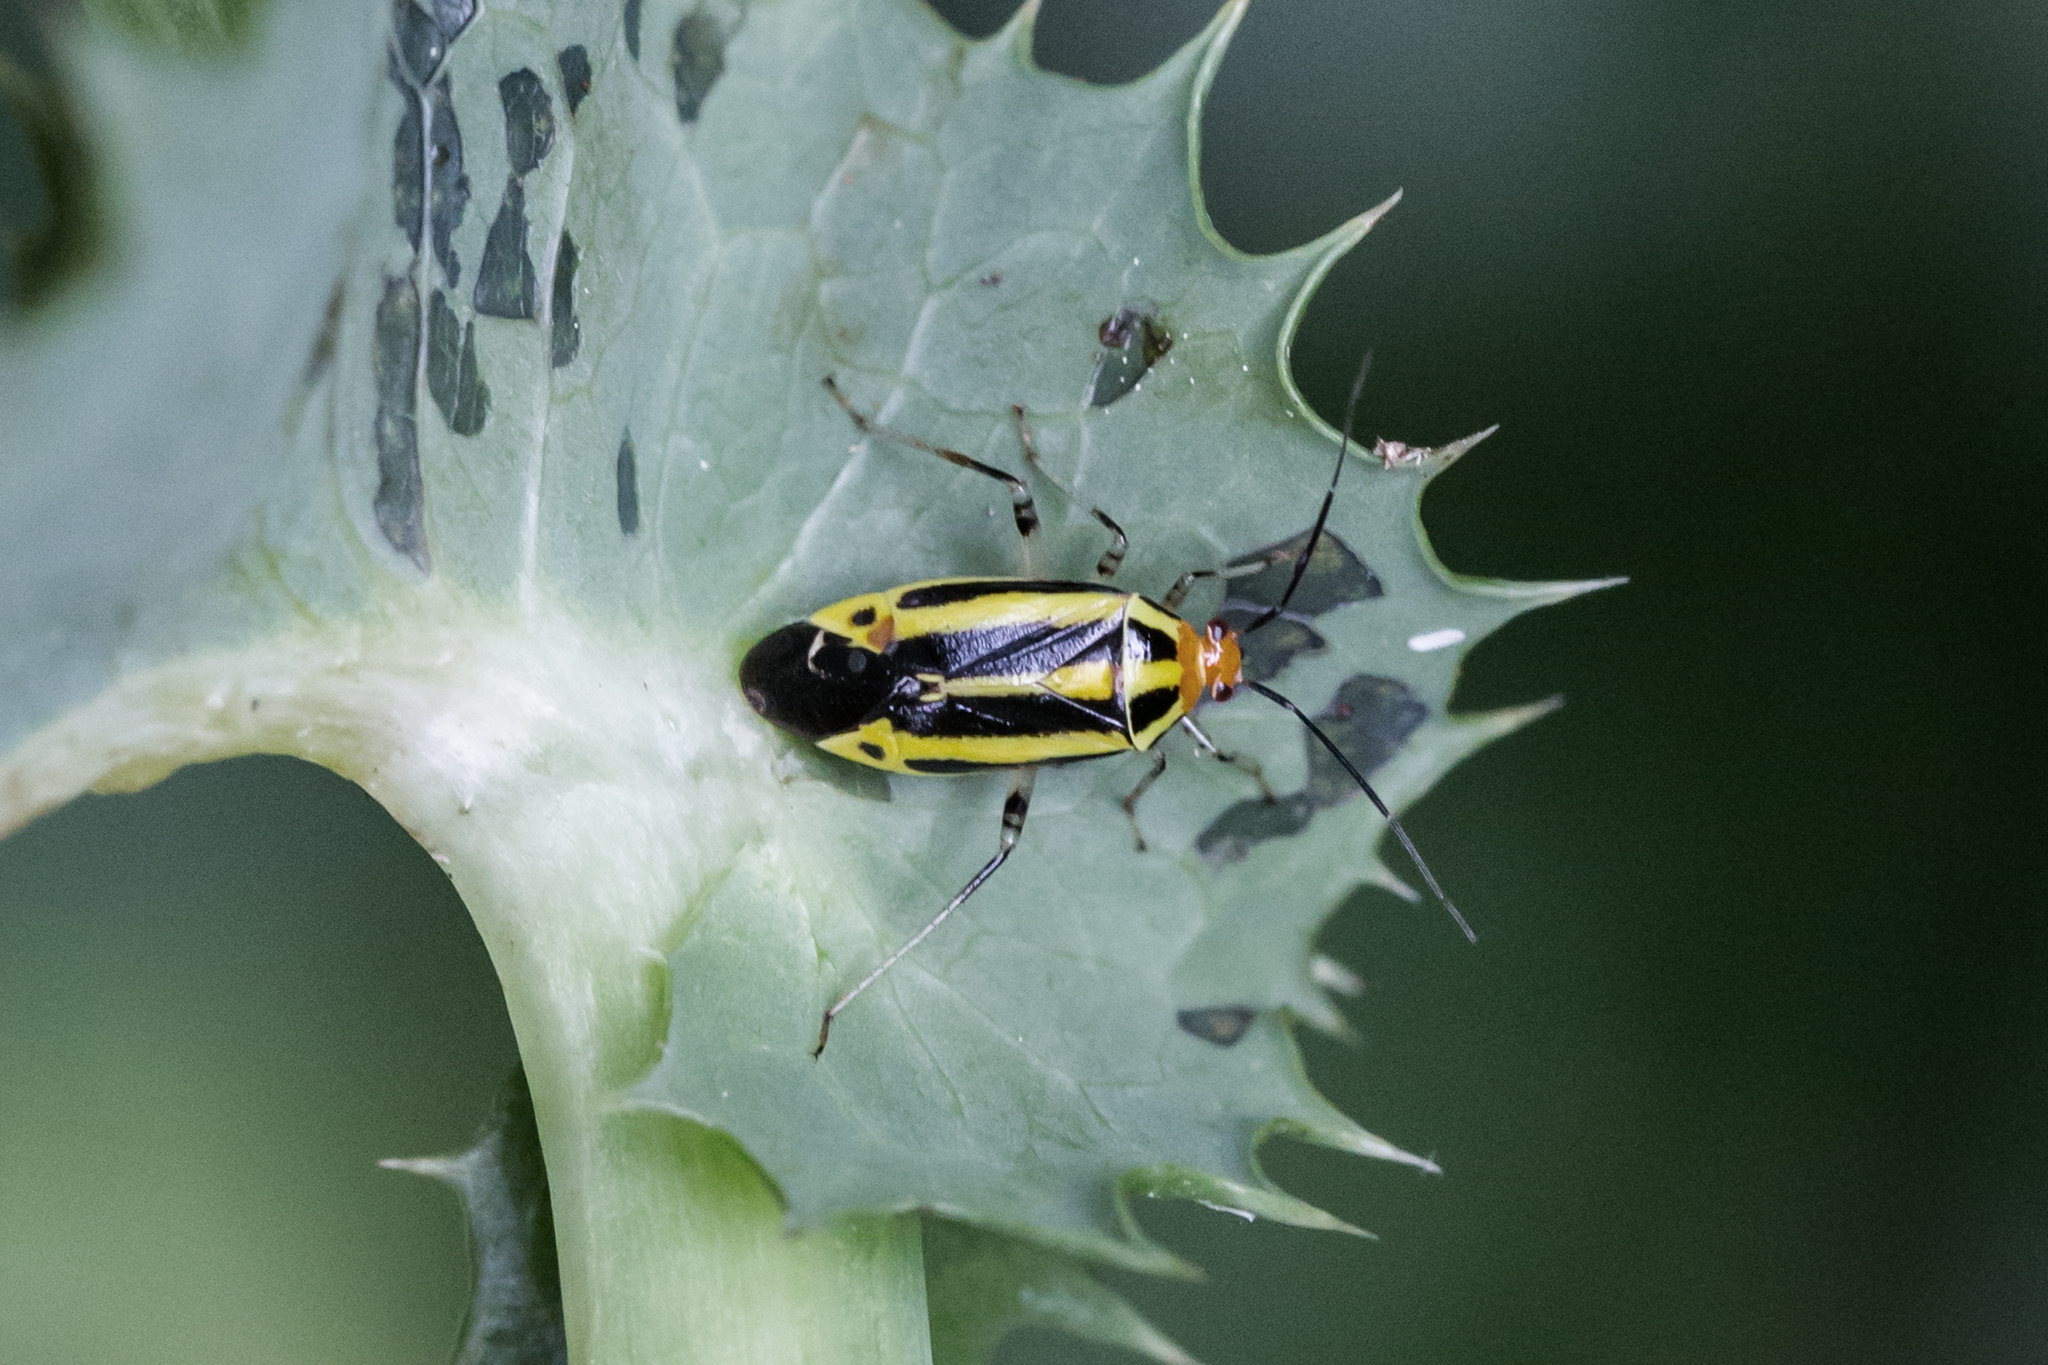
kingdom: Animalia
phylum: Arthropoda
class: Insecta
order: Hemiptera
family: Miridae
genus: Poecilocapsus
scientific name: Poecilocapsus lineatus
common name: Four-lined plant bug
